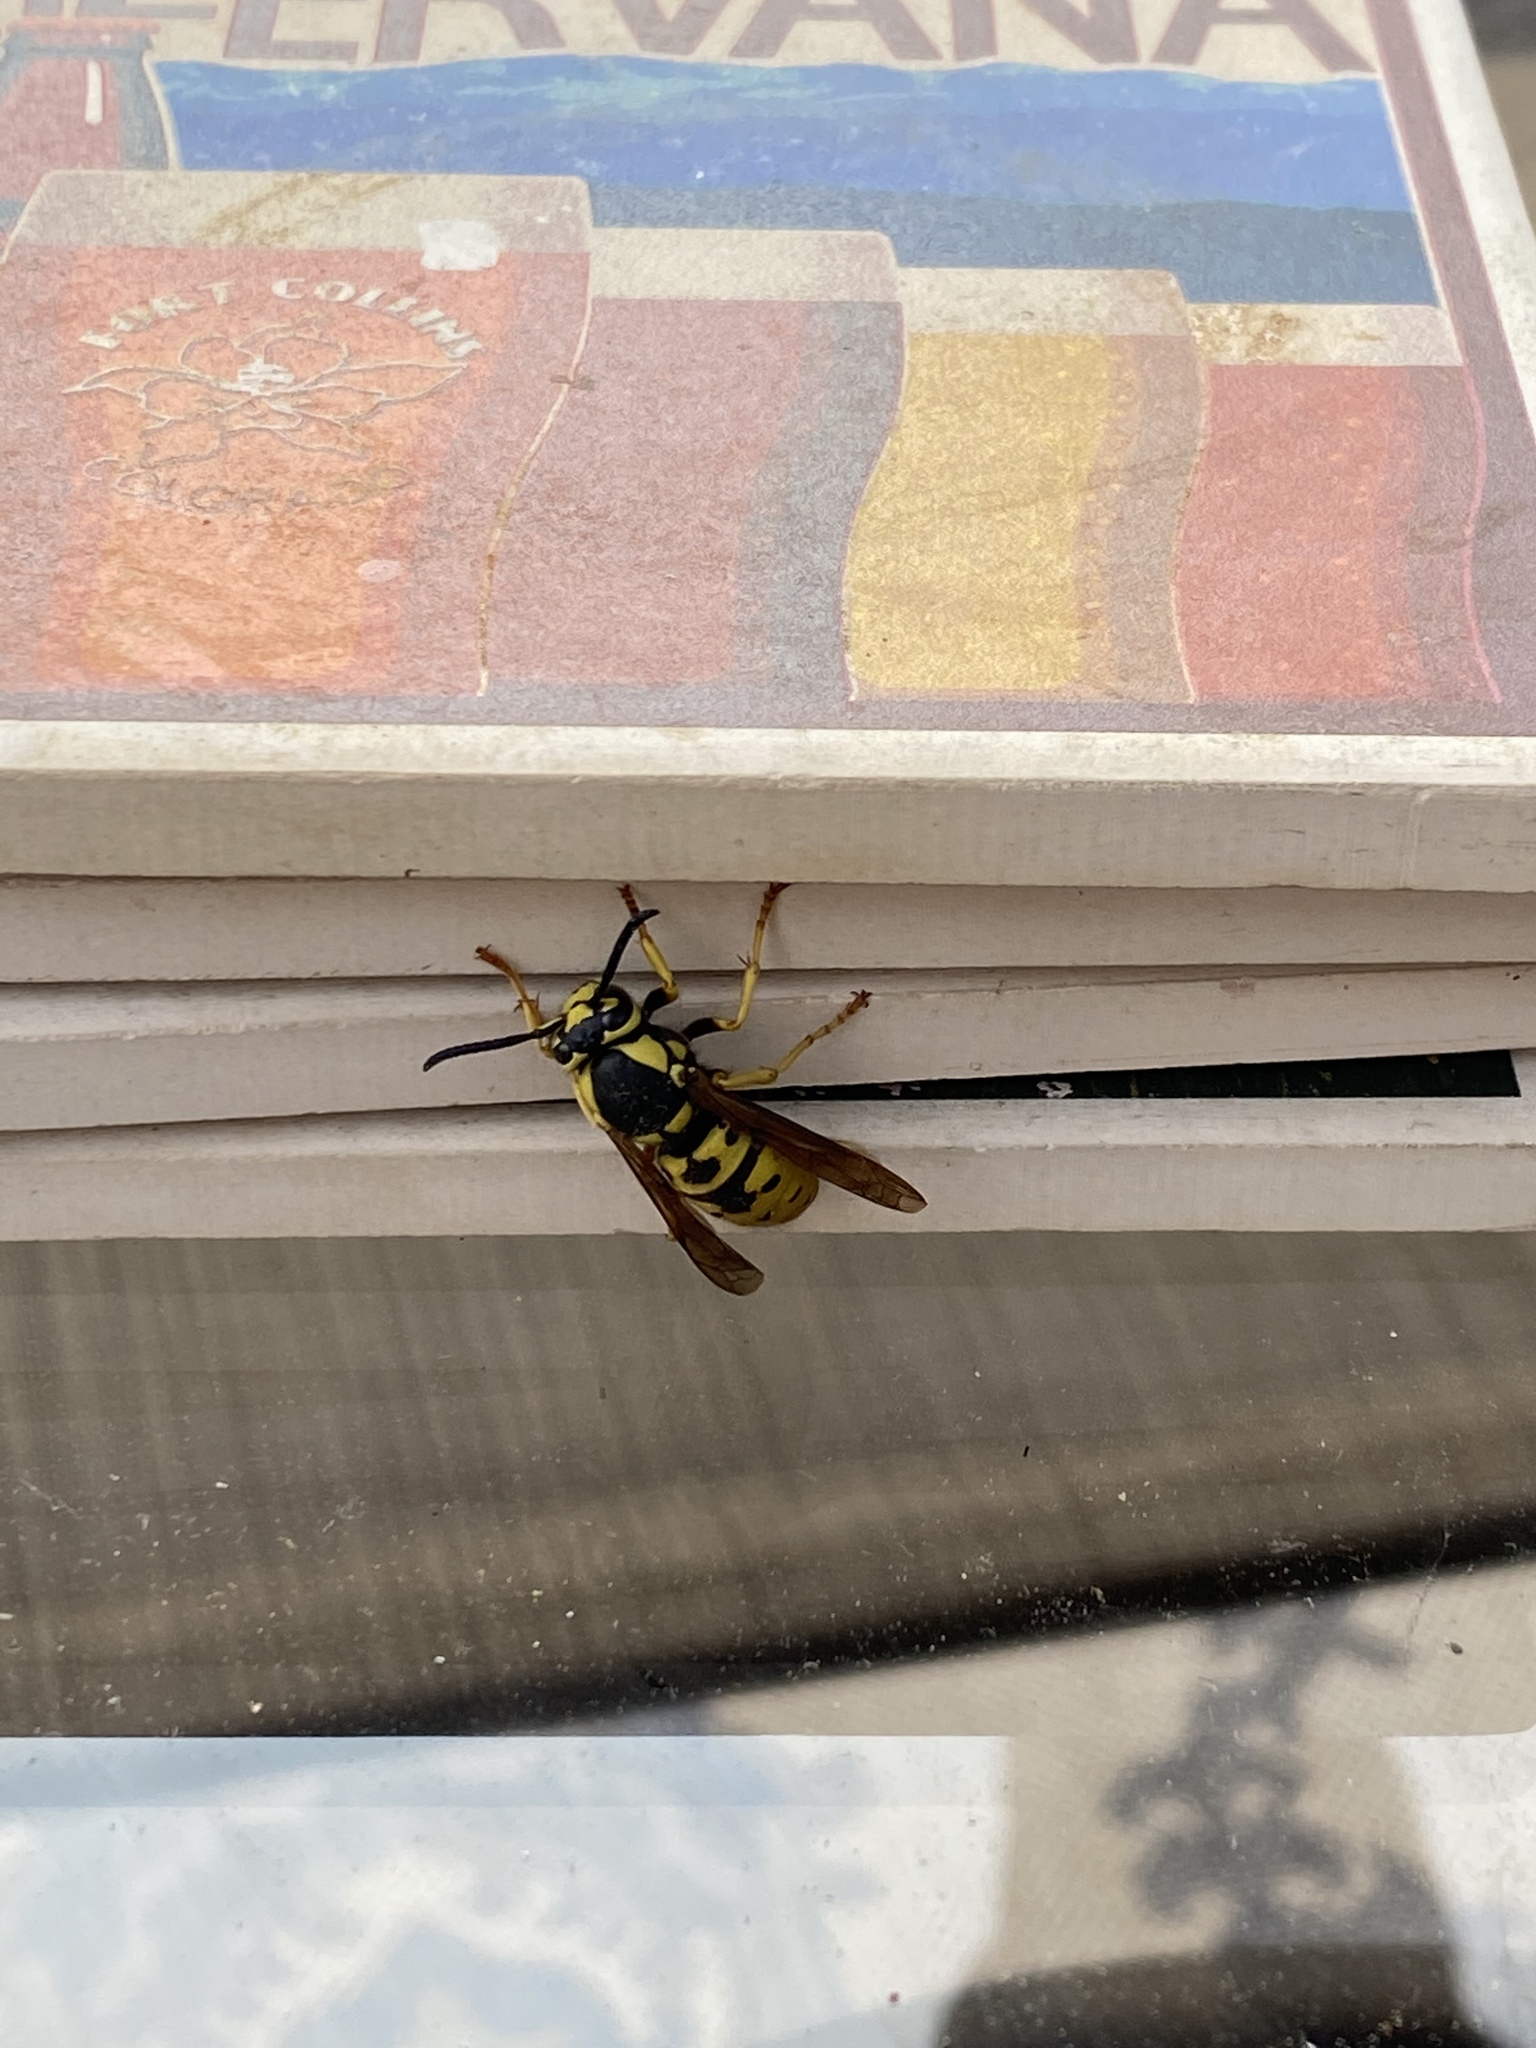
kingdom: Animalia
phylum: Arthropoda
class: Insecta
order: Hymenoptera
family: Vespidae
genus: Vespula
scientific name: Vespula atropilosa
